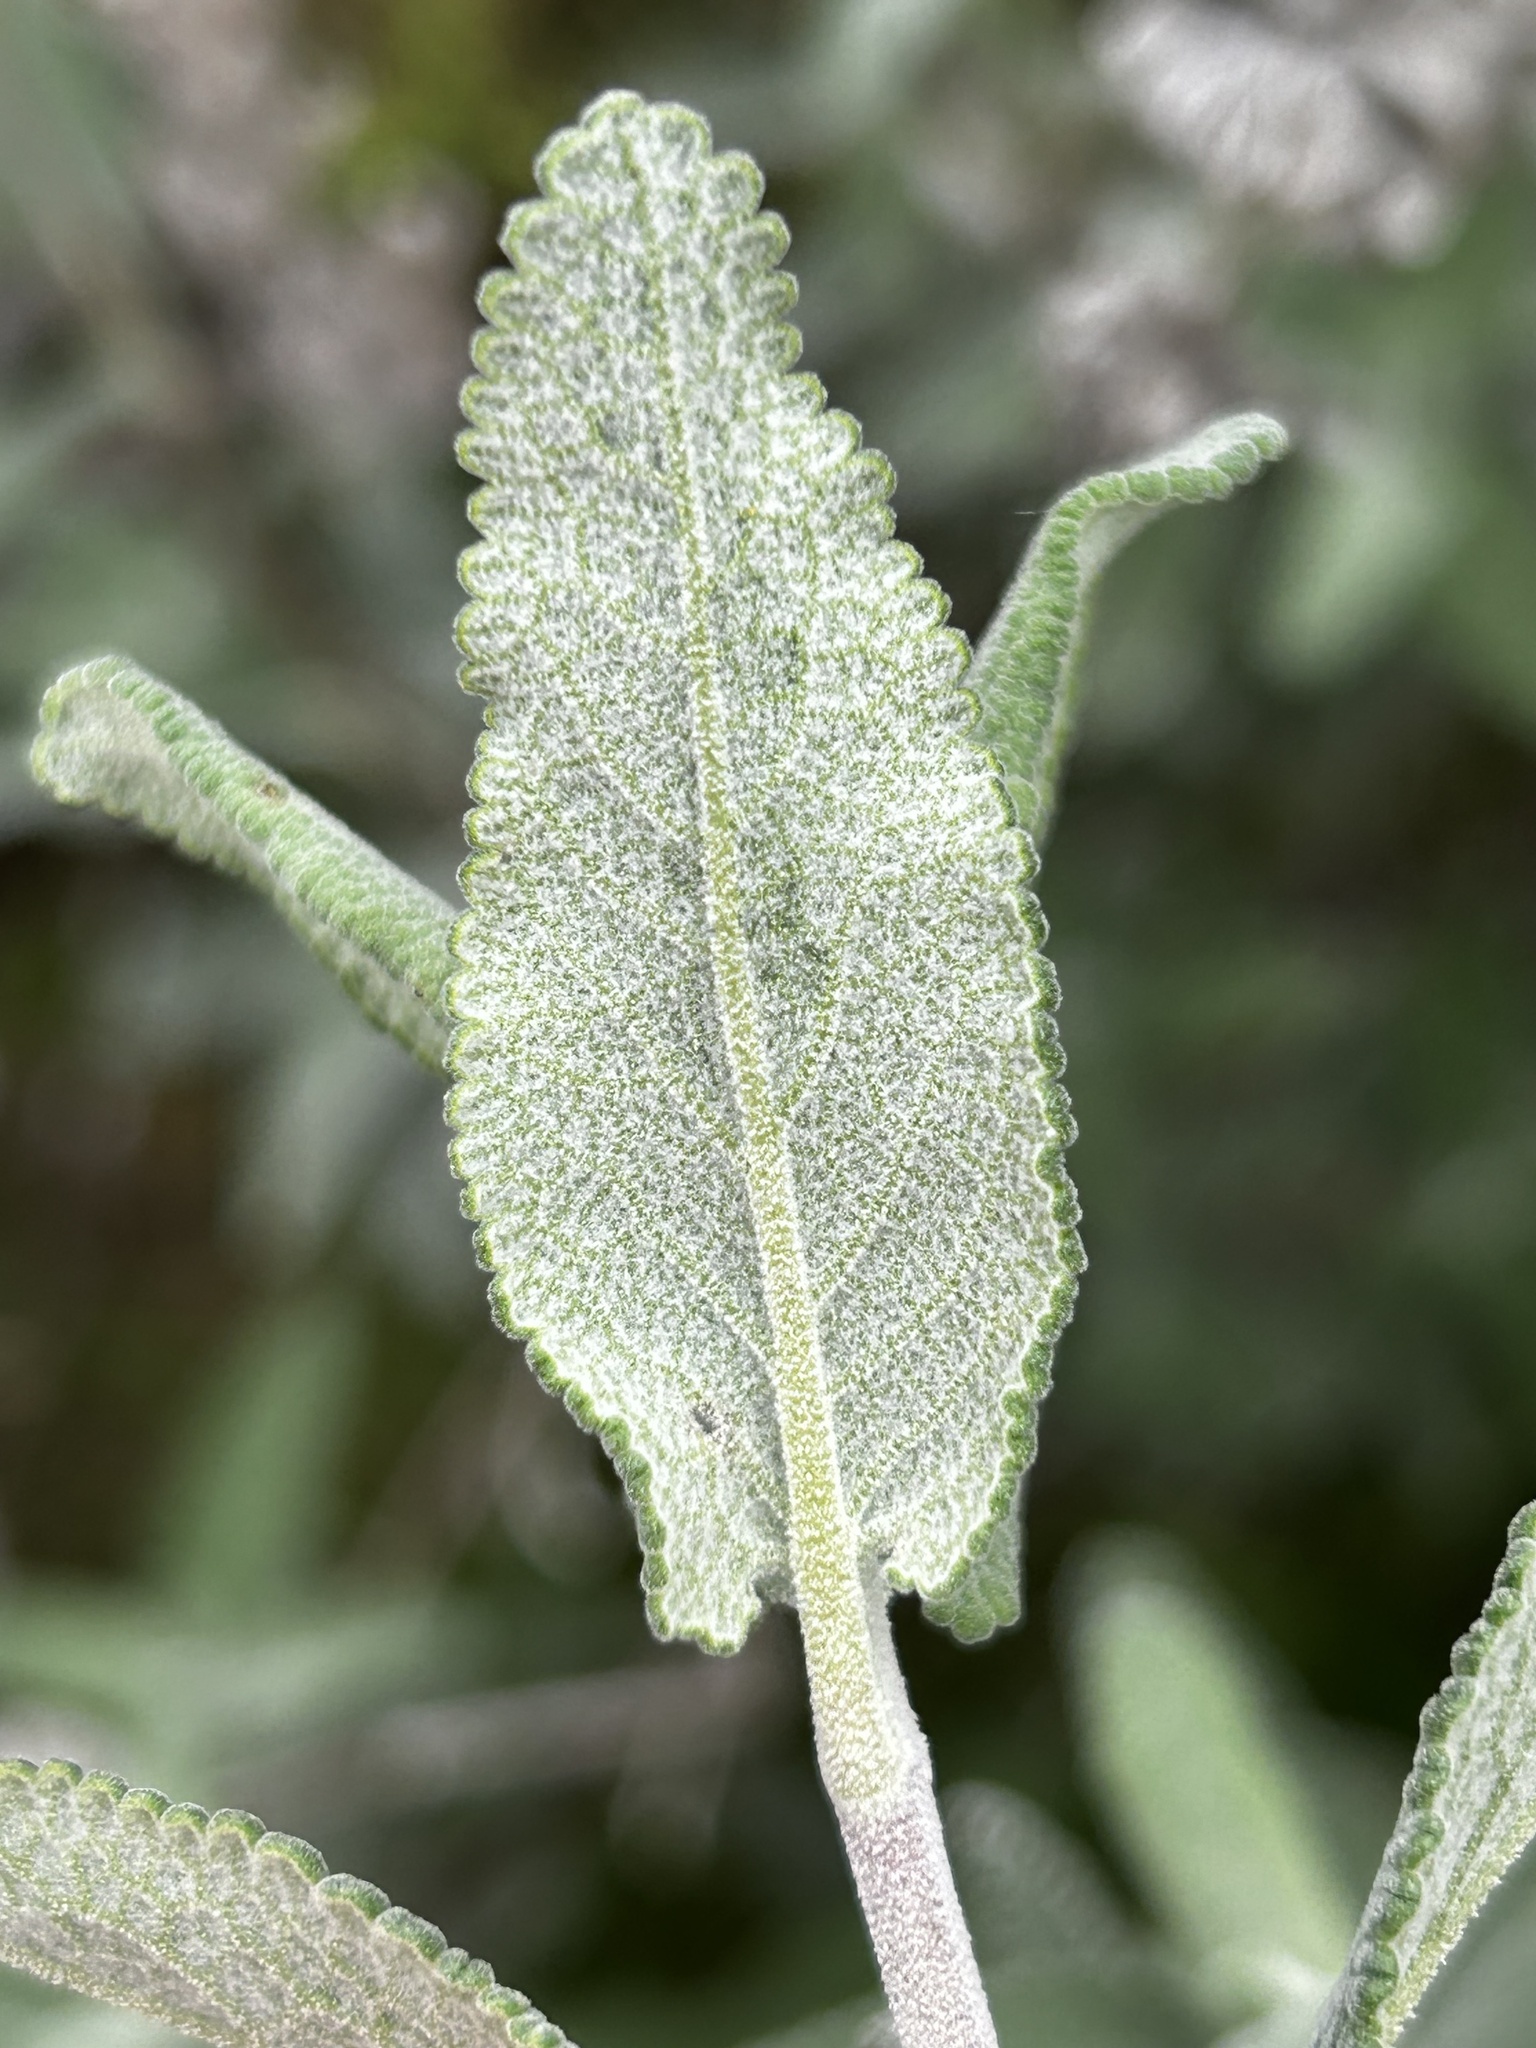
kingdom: Plantae
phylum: Tracheophyta
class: Magnoliopsida
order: Lamiales
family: Lamiaceae
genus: Salvia
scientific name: Salvia leucophylla
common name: Purple sage
